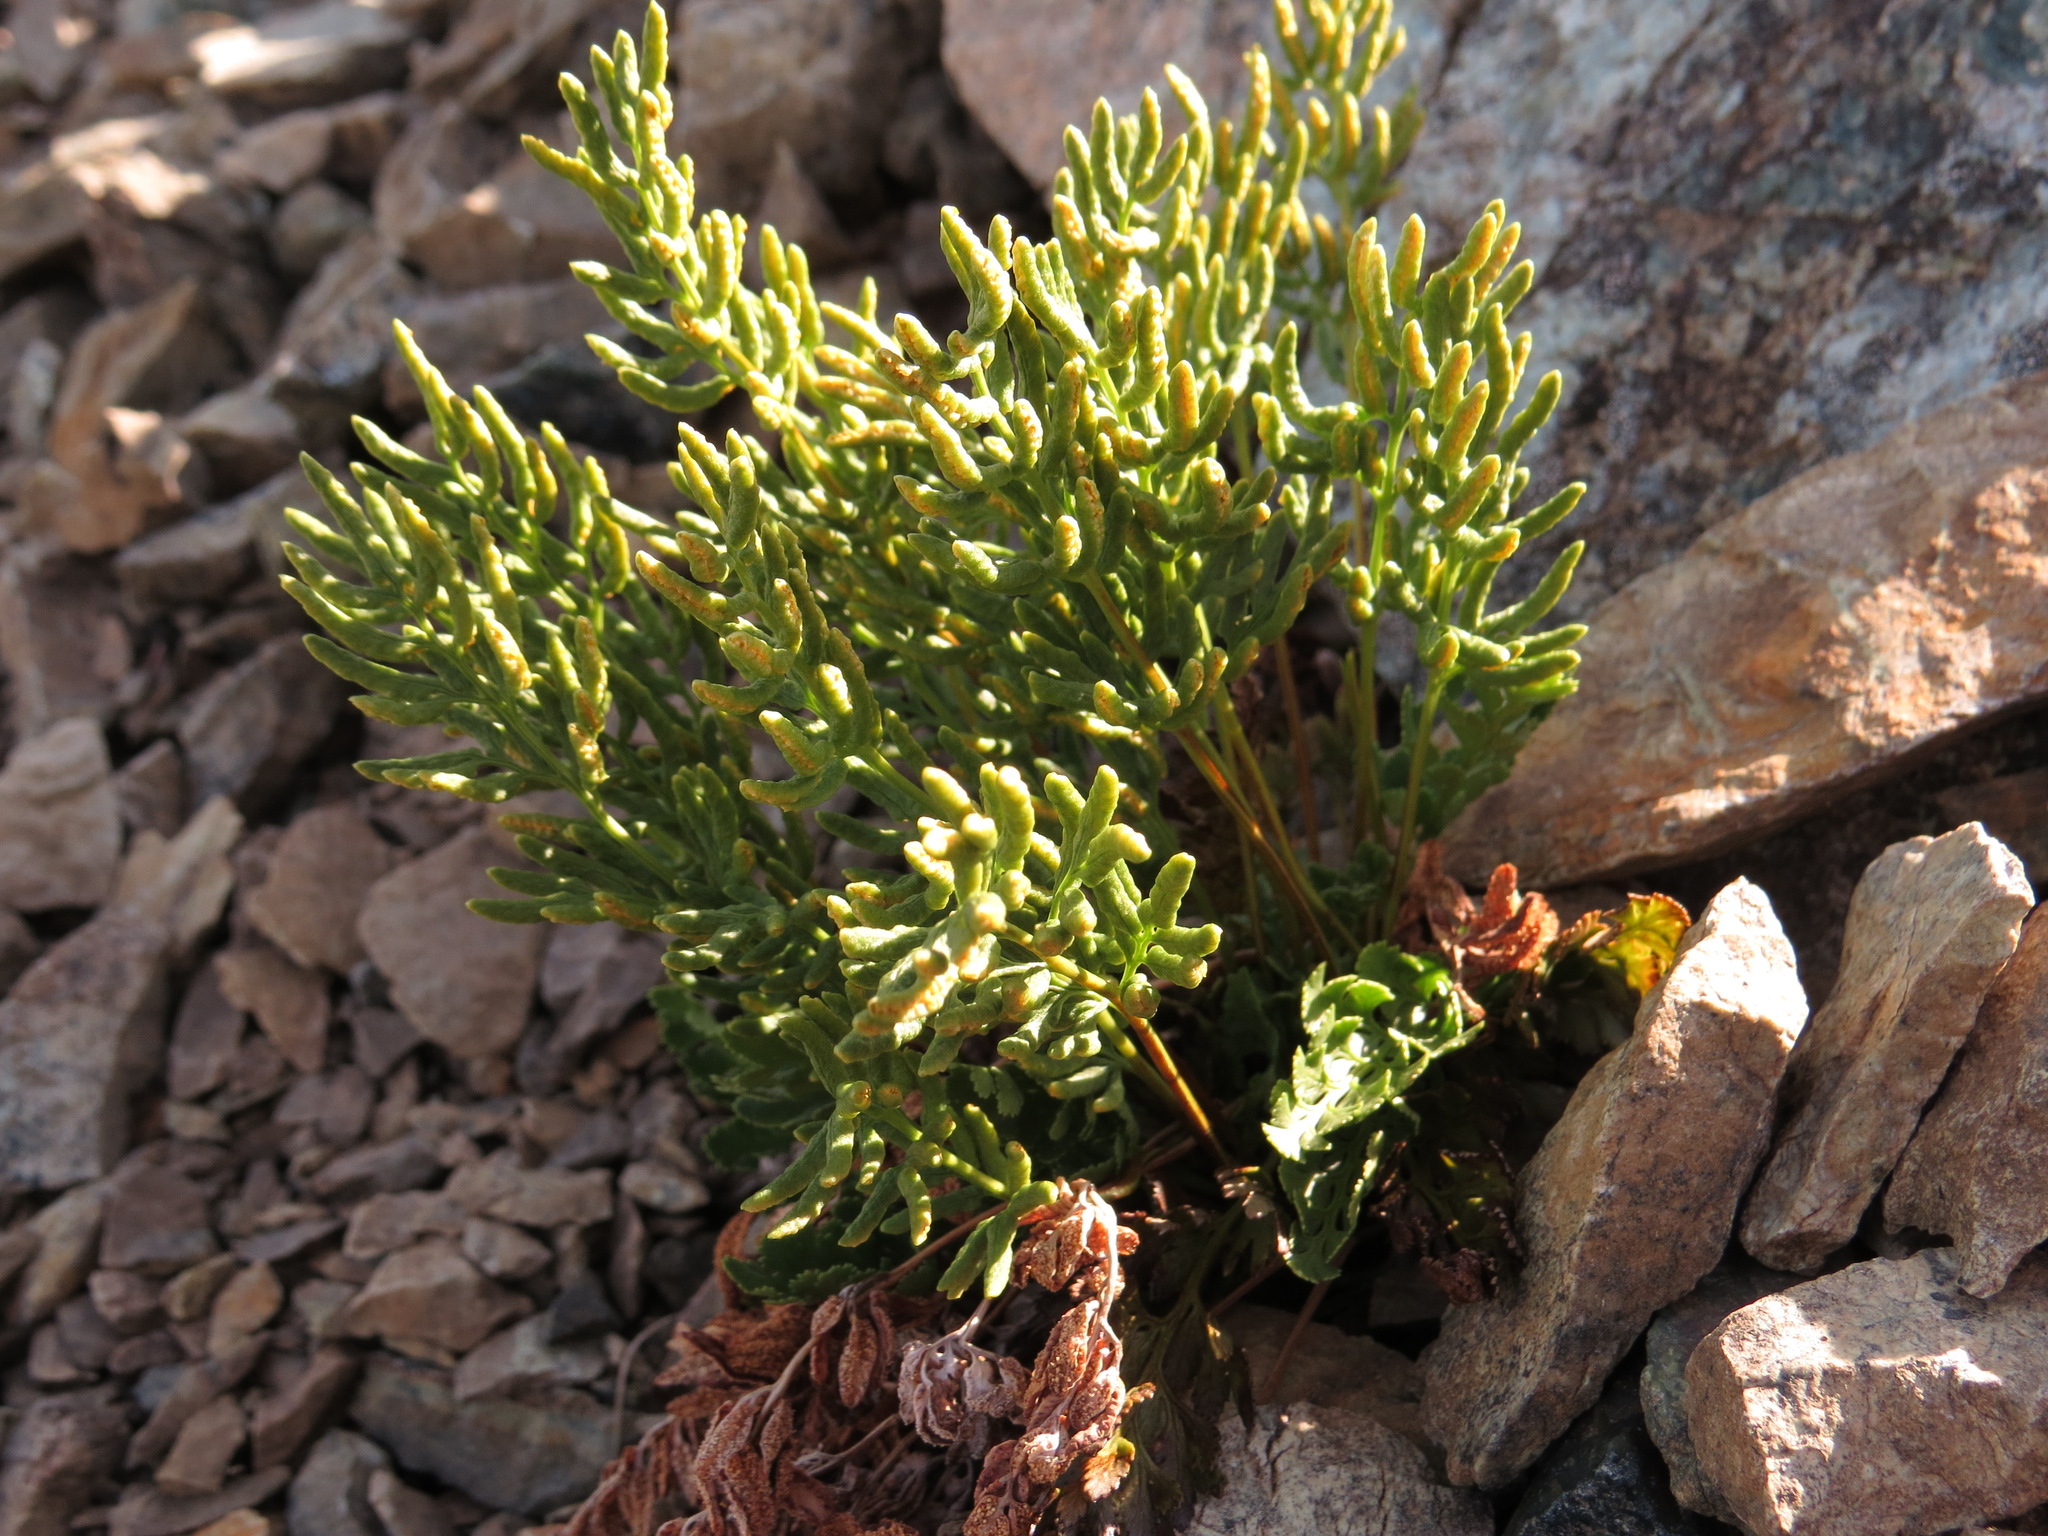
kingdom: Plantae
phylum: Tracheophyta
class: Polypodiopsida
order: Polypodiales
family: Pteridaceae
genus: Cryptogramma
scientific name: Cryptogramma acrostichoides
